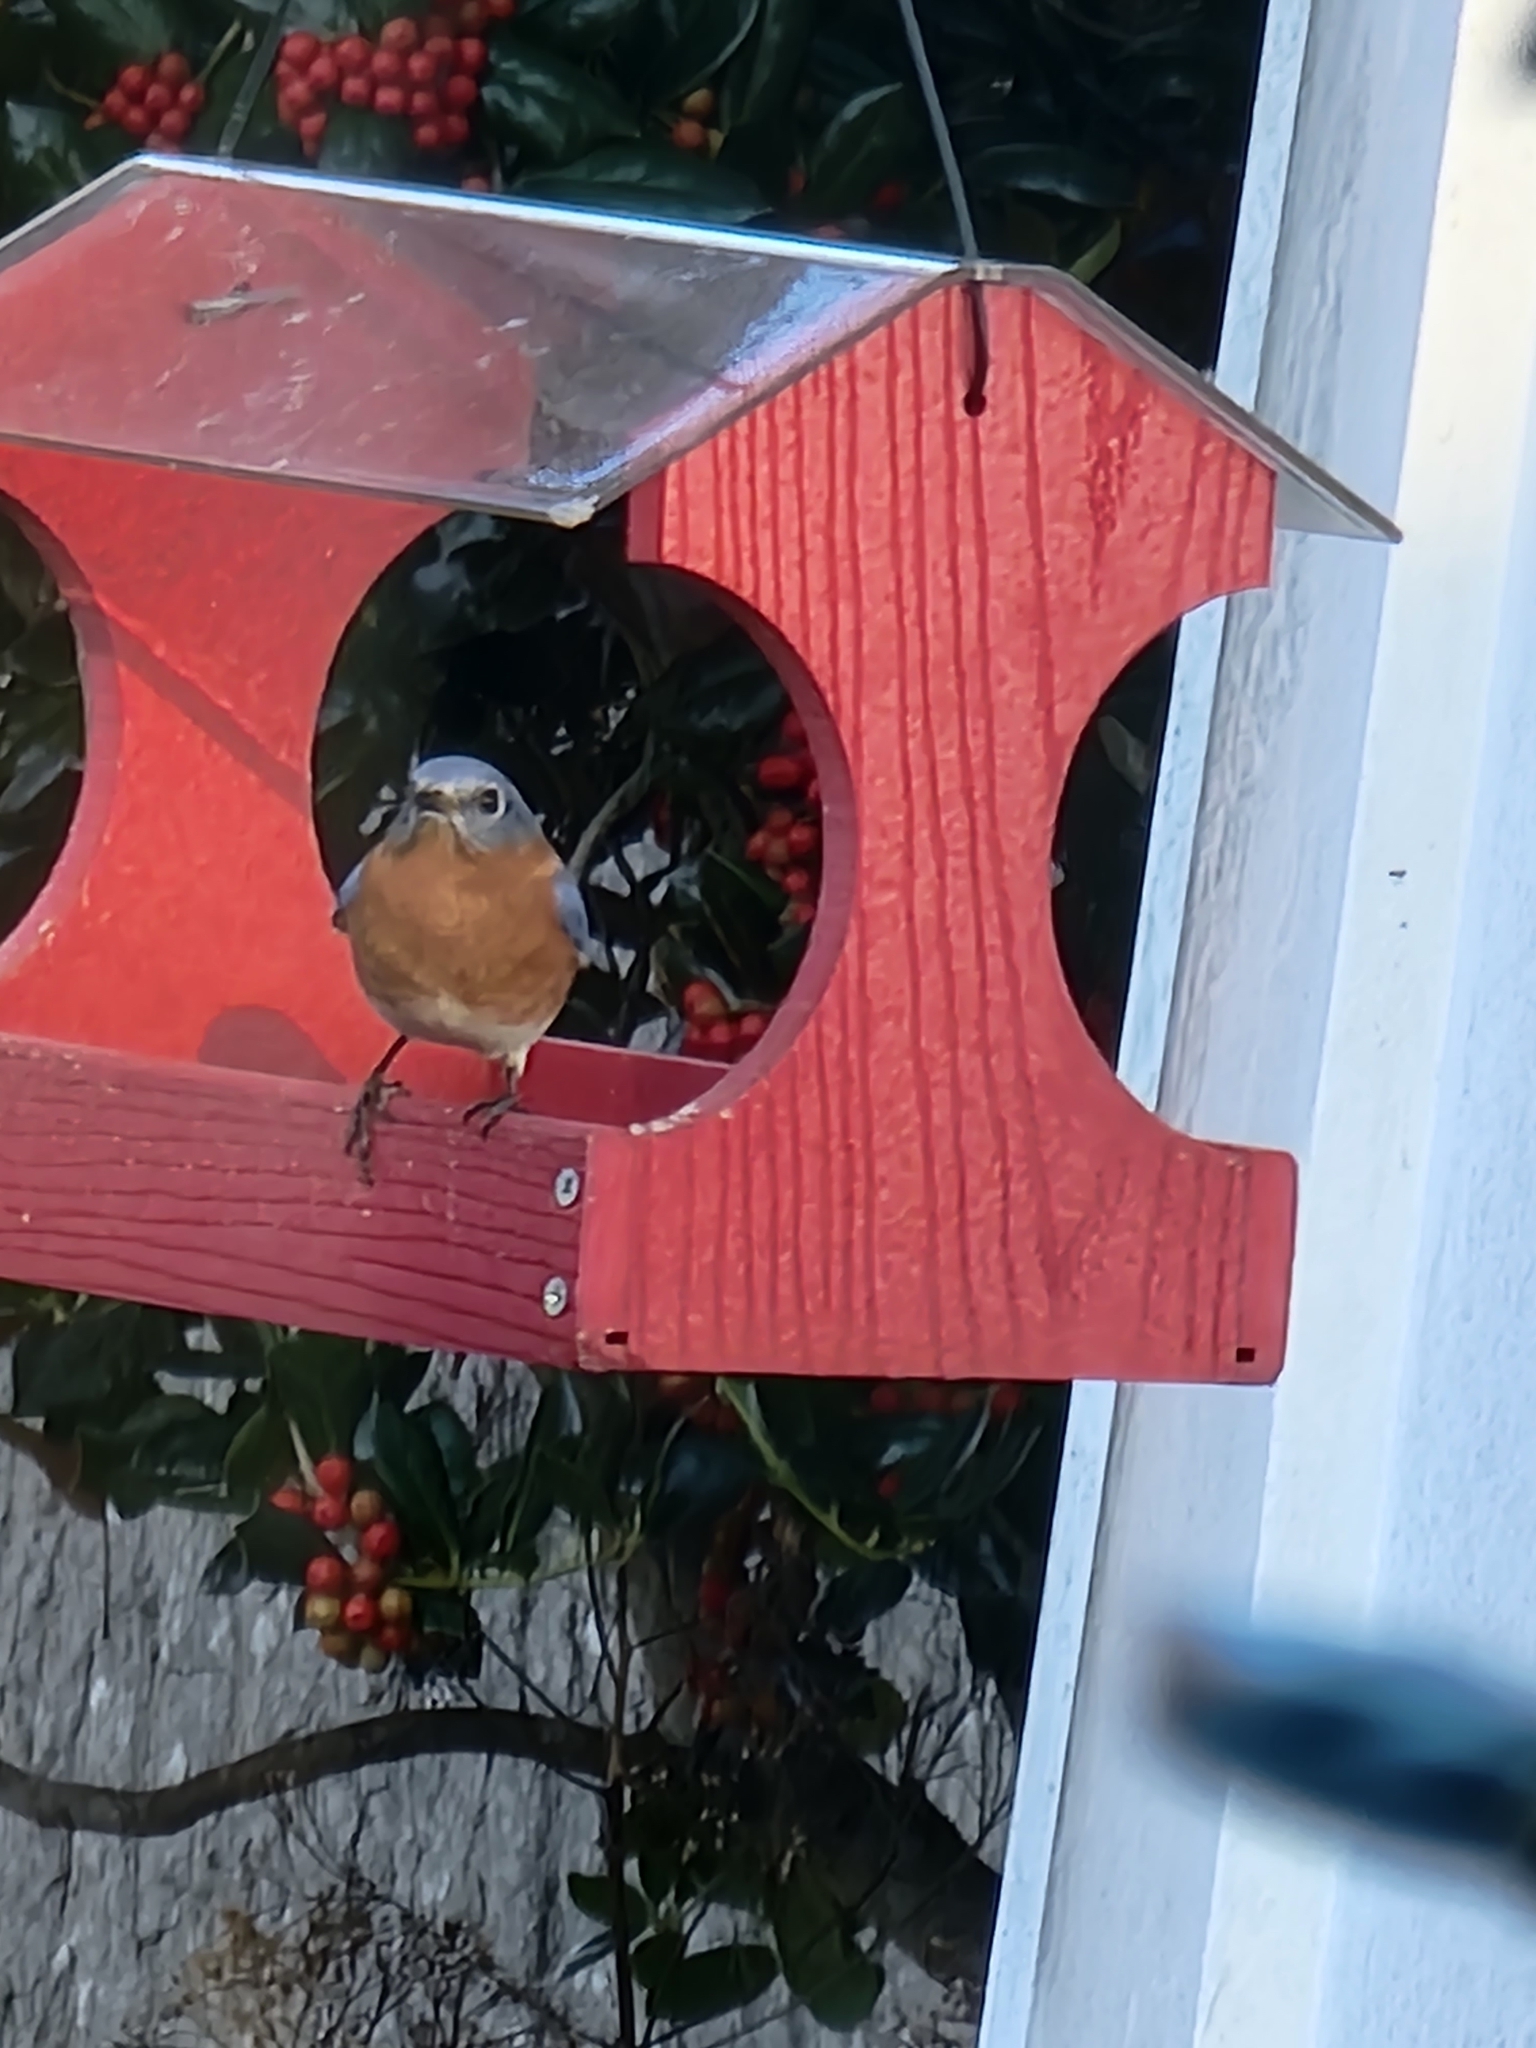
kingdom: Animalia
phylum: Chordata
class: Aves
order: Passeriformes
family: Turdidae
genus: Sialia
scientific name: Sialia sialis
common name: Eastern bluebird
